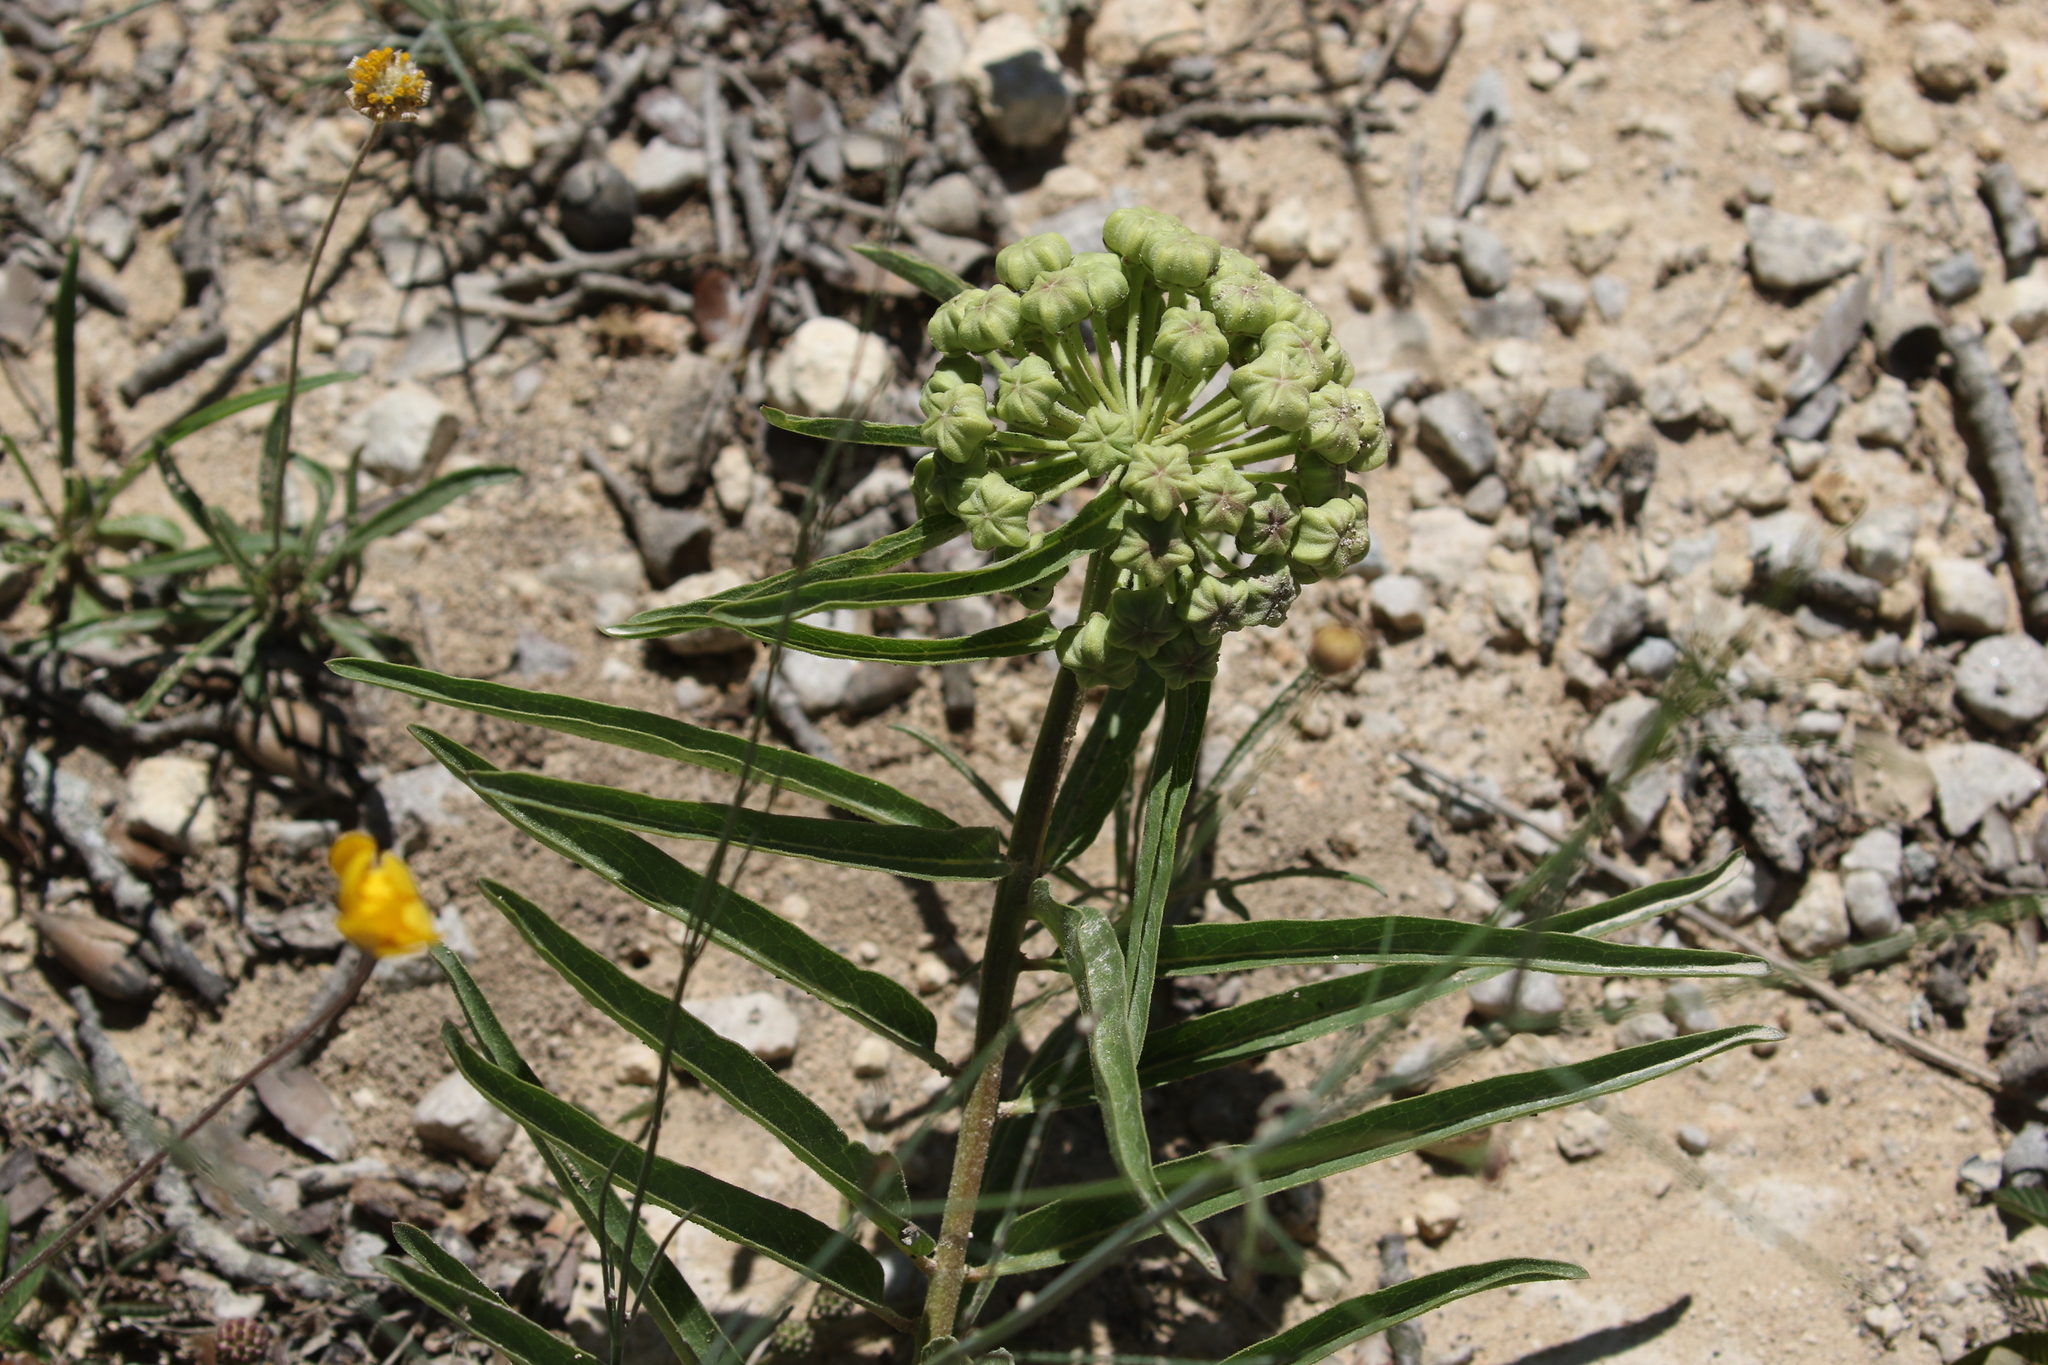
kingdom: Plantae
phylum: Tracheophyta
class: Magnoliopsida
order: Gentianales
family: Apocynaceae
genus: Asclepias
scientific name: Asclepias asperula
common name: Antelope horns
